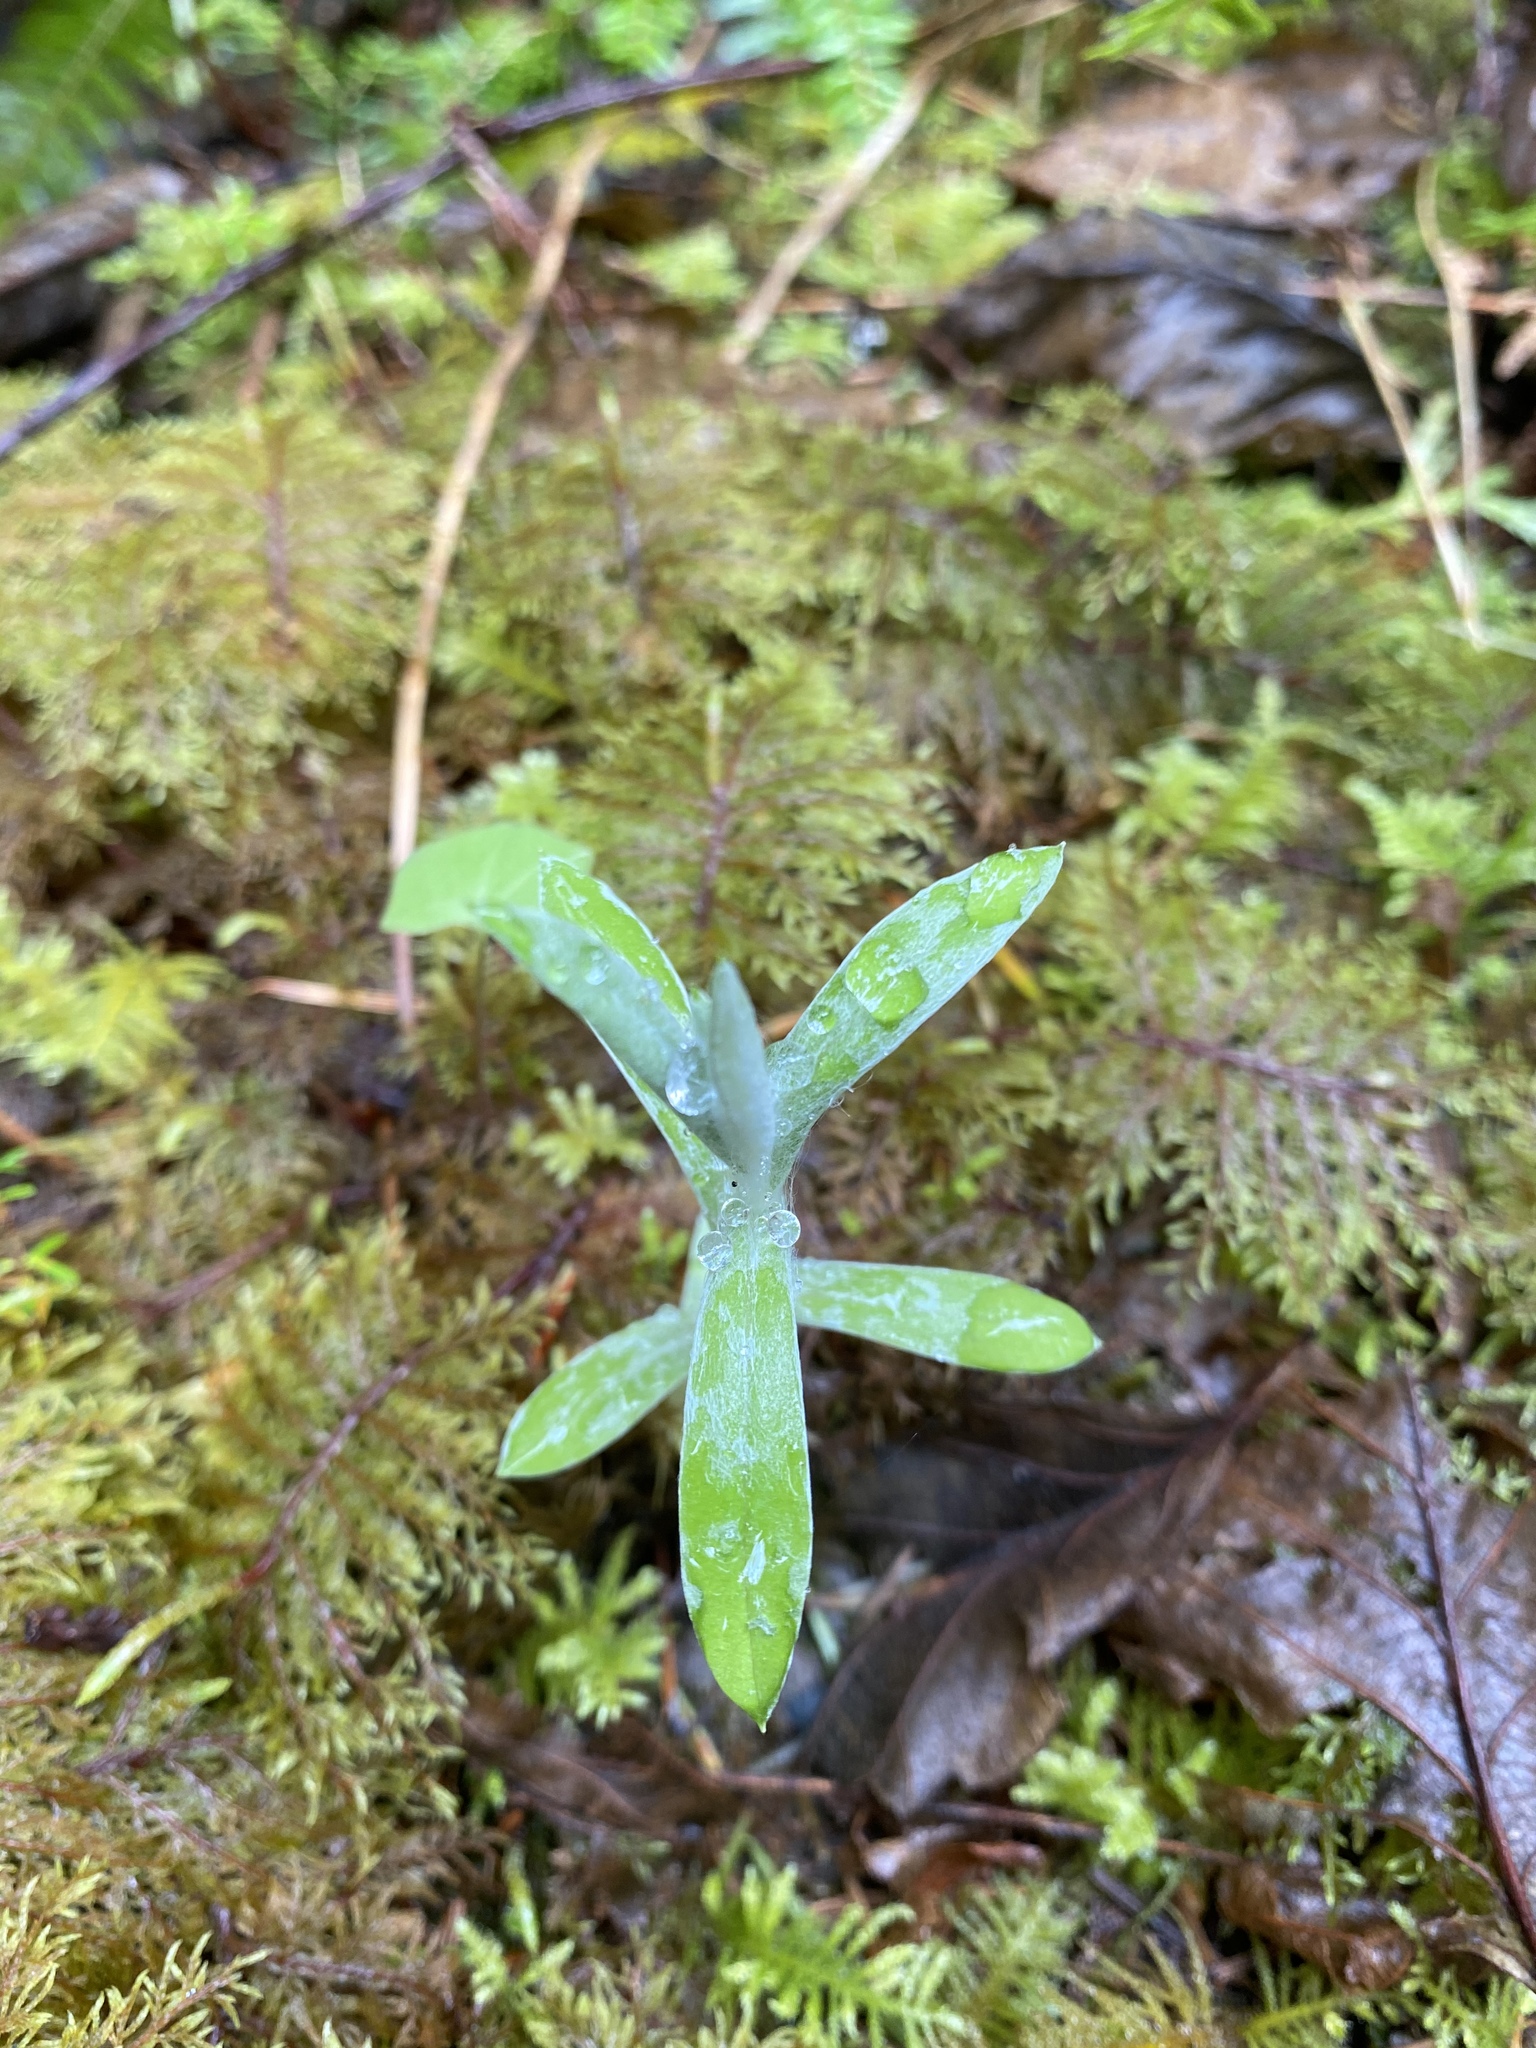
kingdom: Plantae
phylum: Tracheophyta
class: Magnoliopsida
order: Asterales
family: Asteraceae
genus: Anaphalis
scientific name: Anaphalis margaritacea
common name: Pearly everlasting
